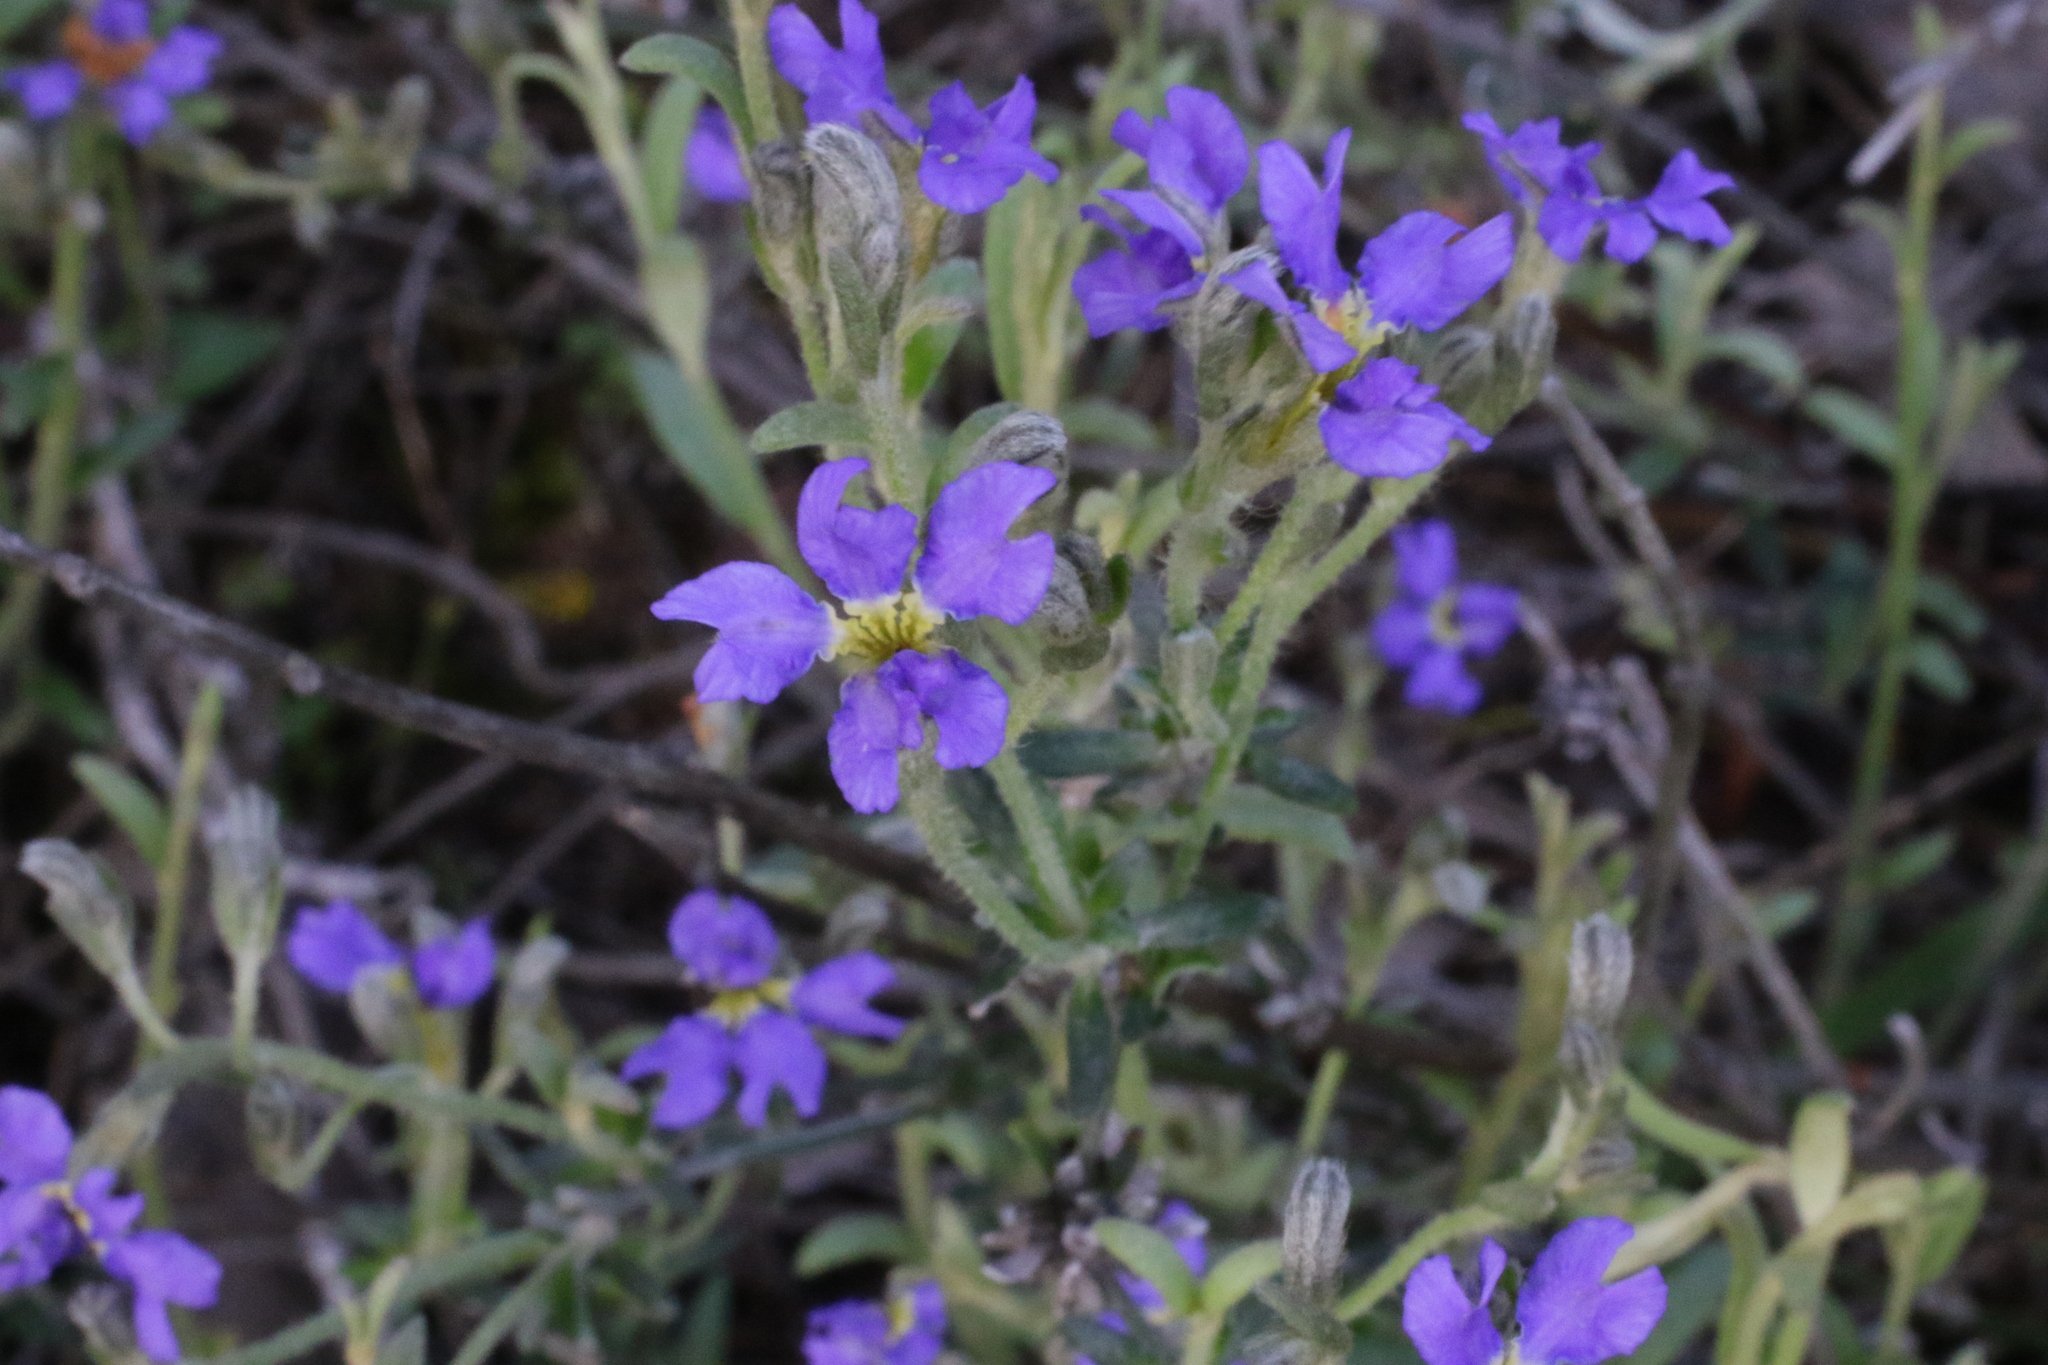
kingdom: Plantae
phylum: Tracheophyta
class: Magnoliopsida
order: Asterales
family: Goodeniaceae
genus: Dampiera
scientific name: Dampiera marifolia
